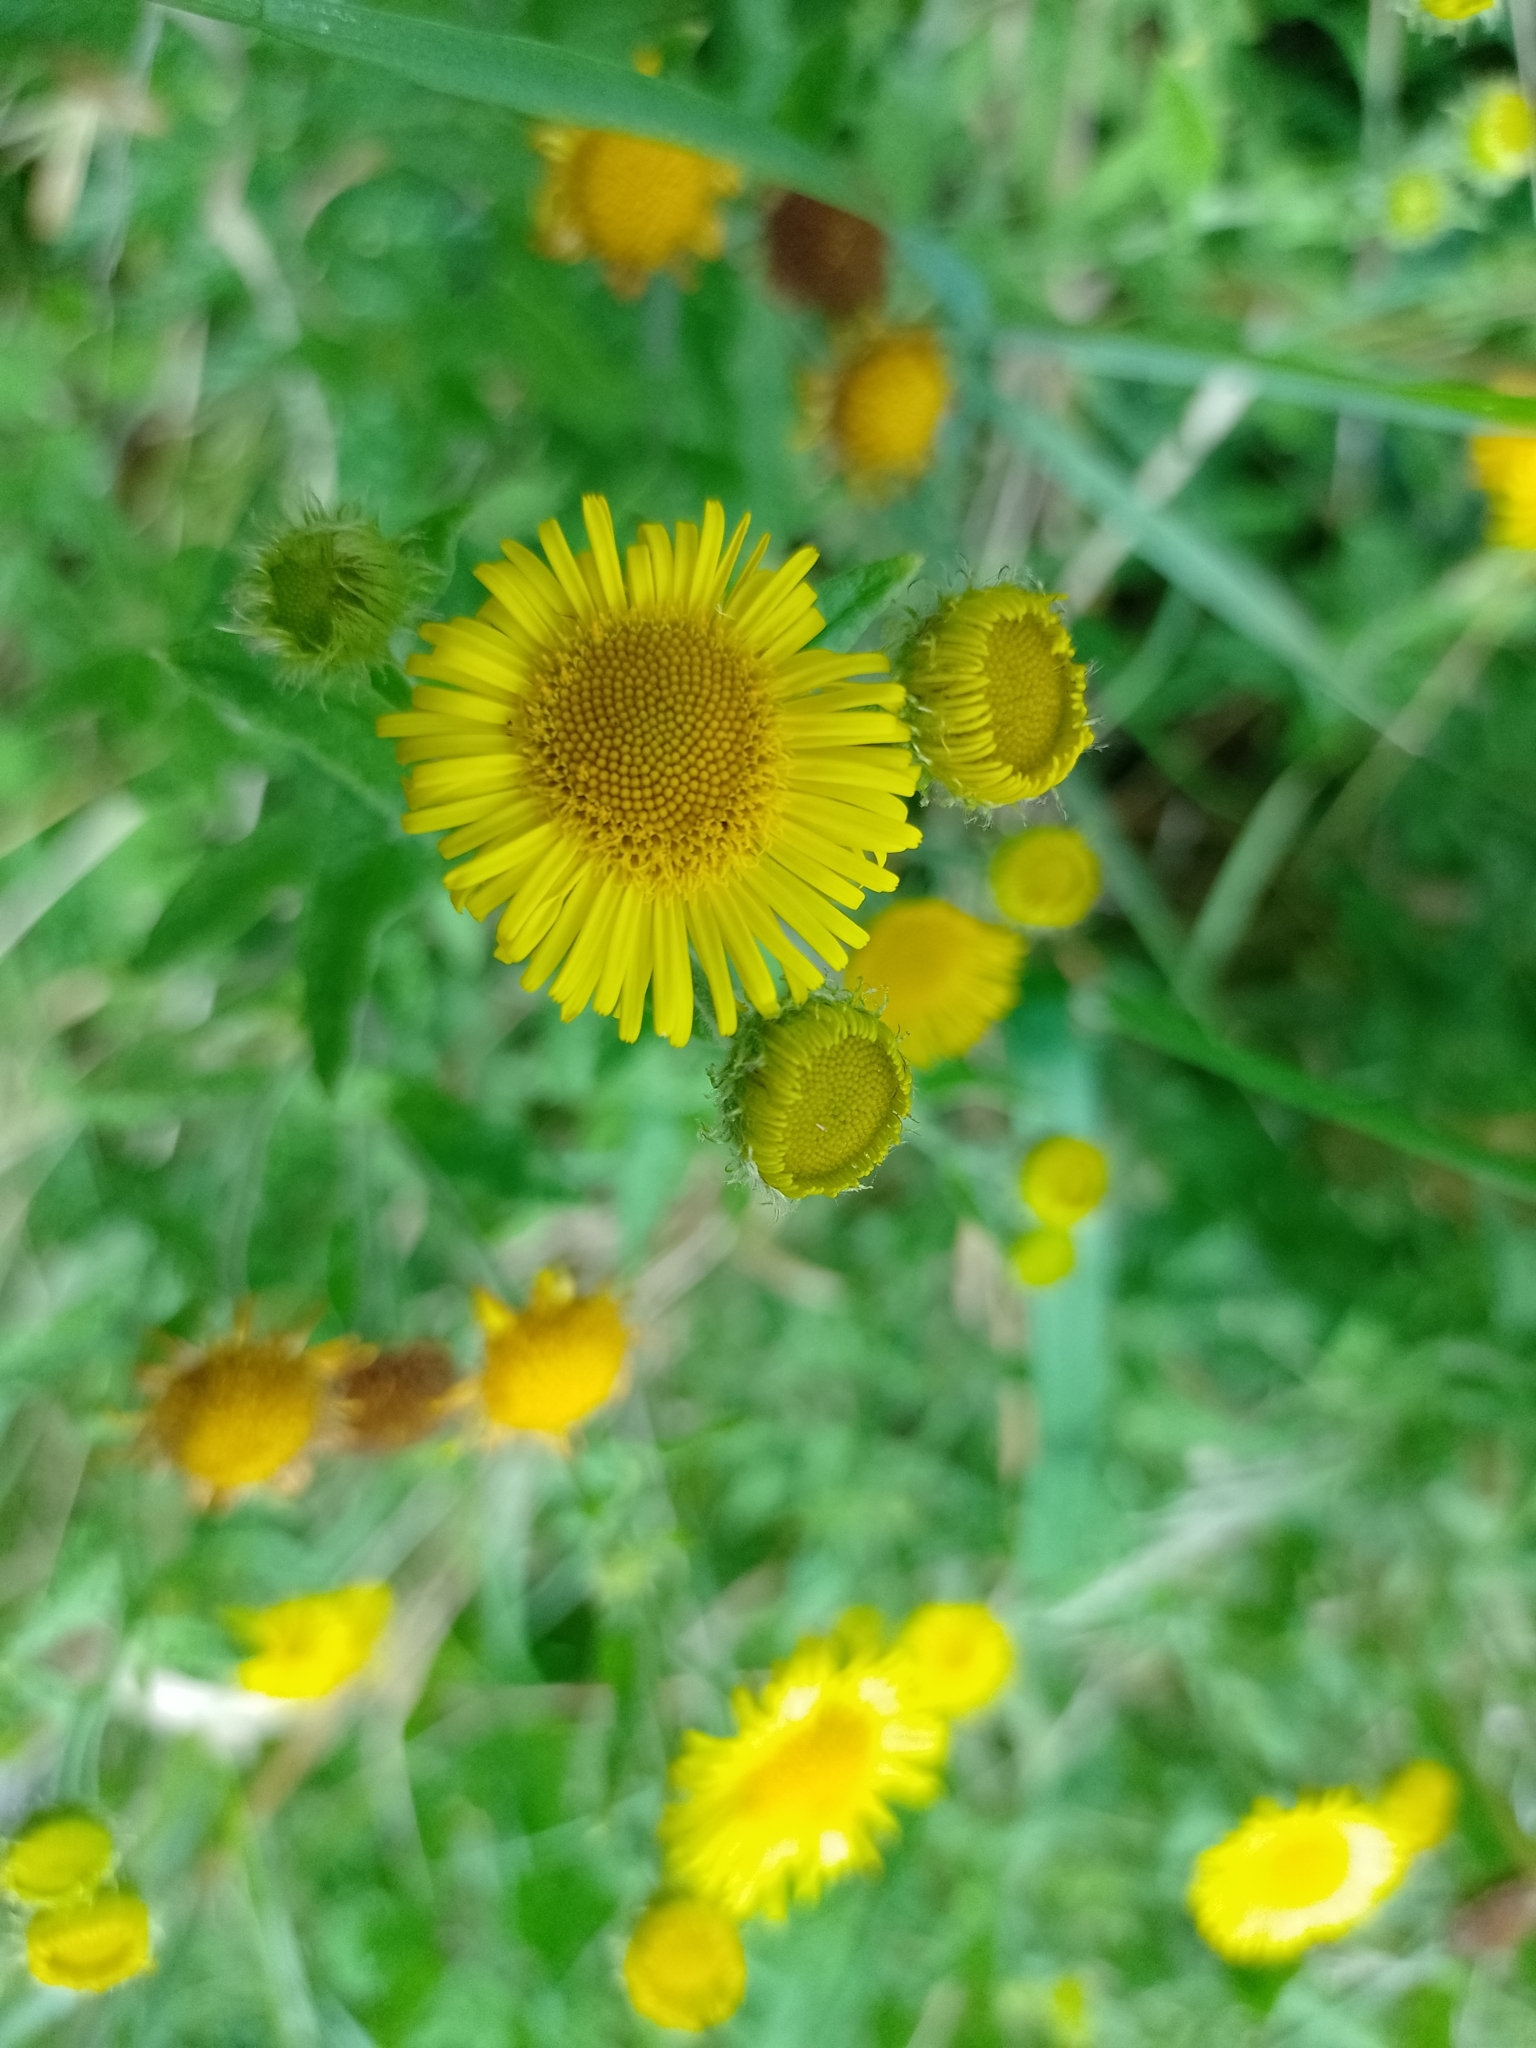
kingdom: Plantae
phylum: Tracheophyta
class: Magnoliopsida
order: Asterales
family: Asteraceae
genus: Pulicaria
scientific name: Pulicaria dysenterica
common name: Common fleabane
